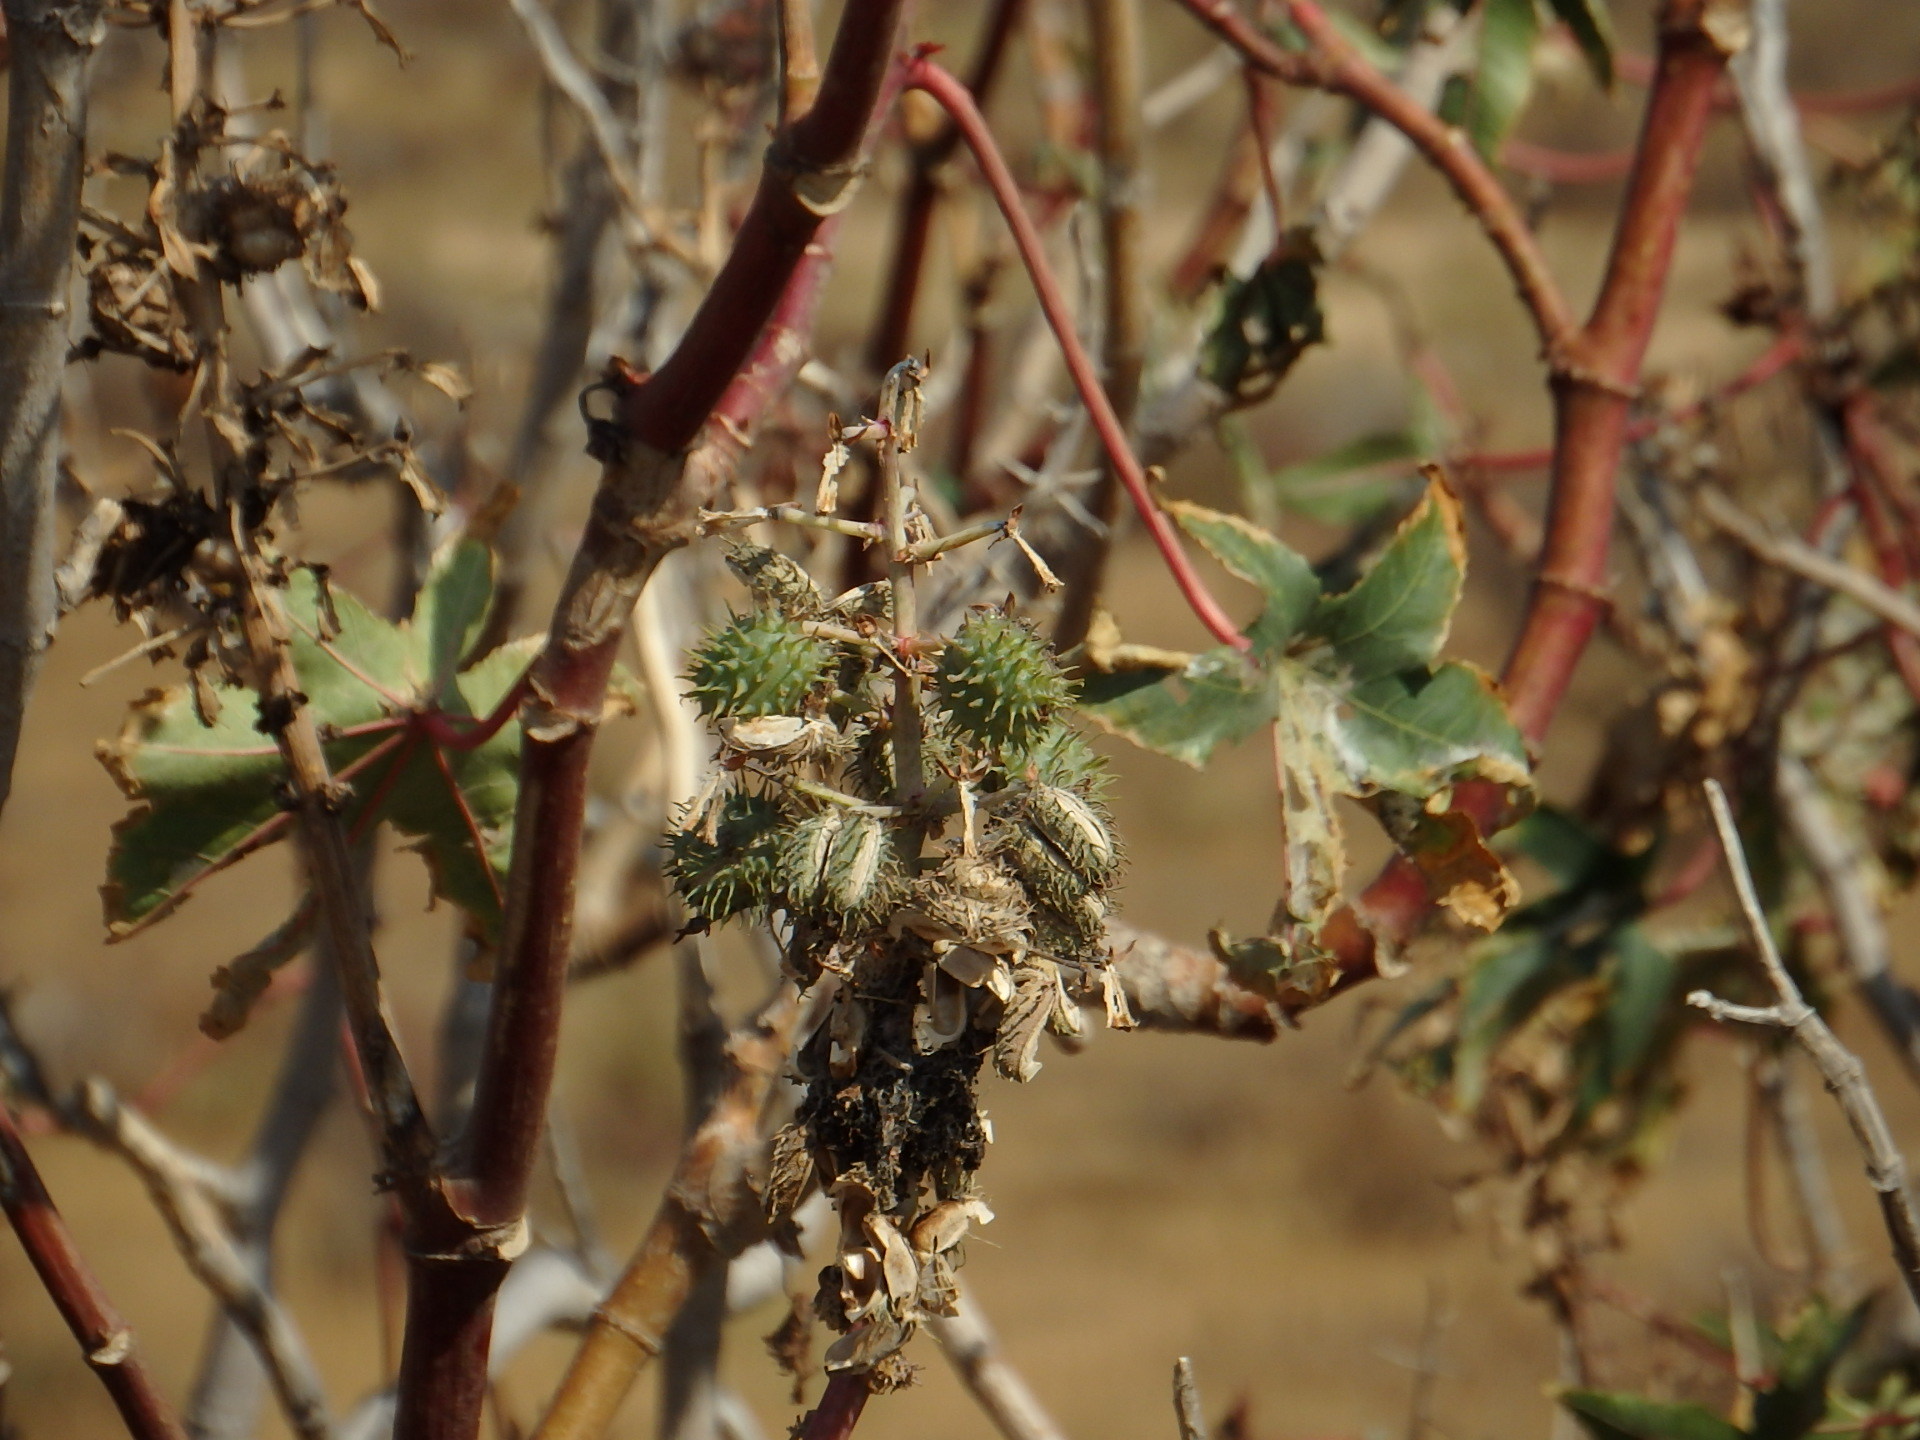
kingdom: Plantae
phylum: Tracheophyta
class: Magnoliopsida
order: Malpighiales
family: Euphorbiaceae
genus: Ricinus
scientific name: Ricinus communis
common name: Castor-oil-plant
